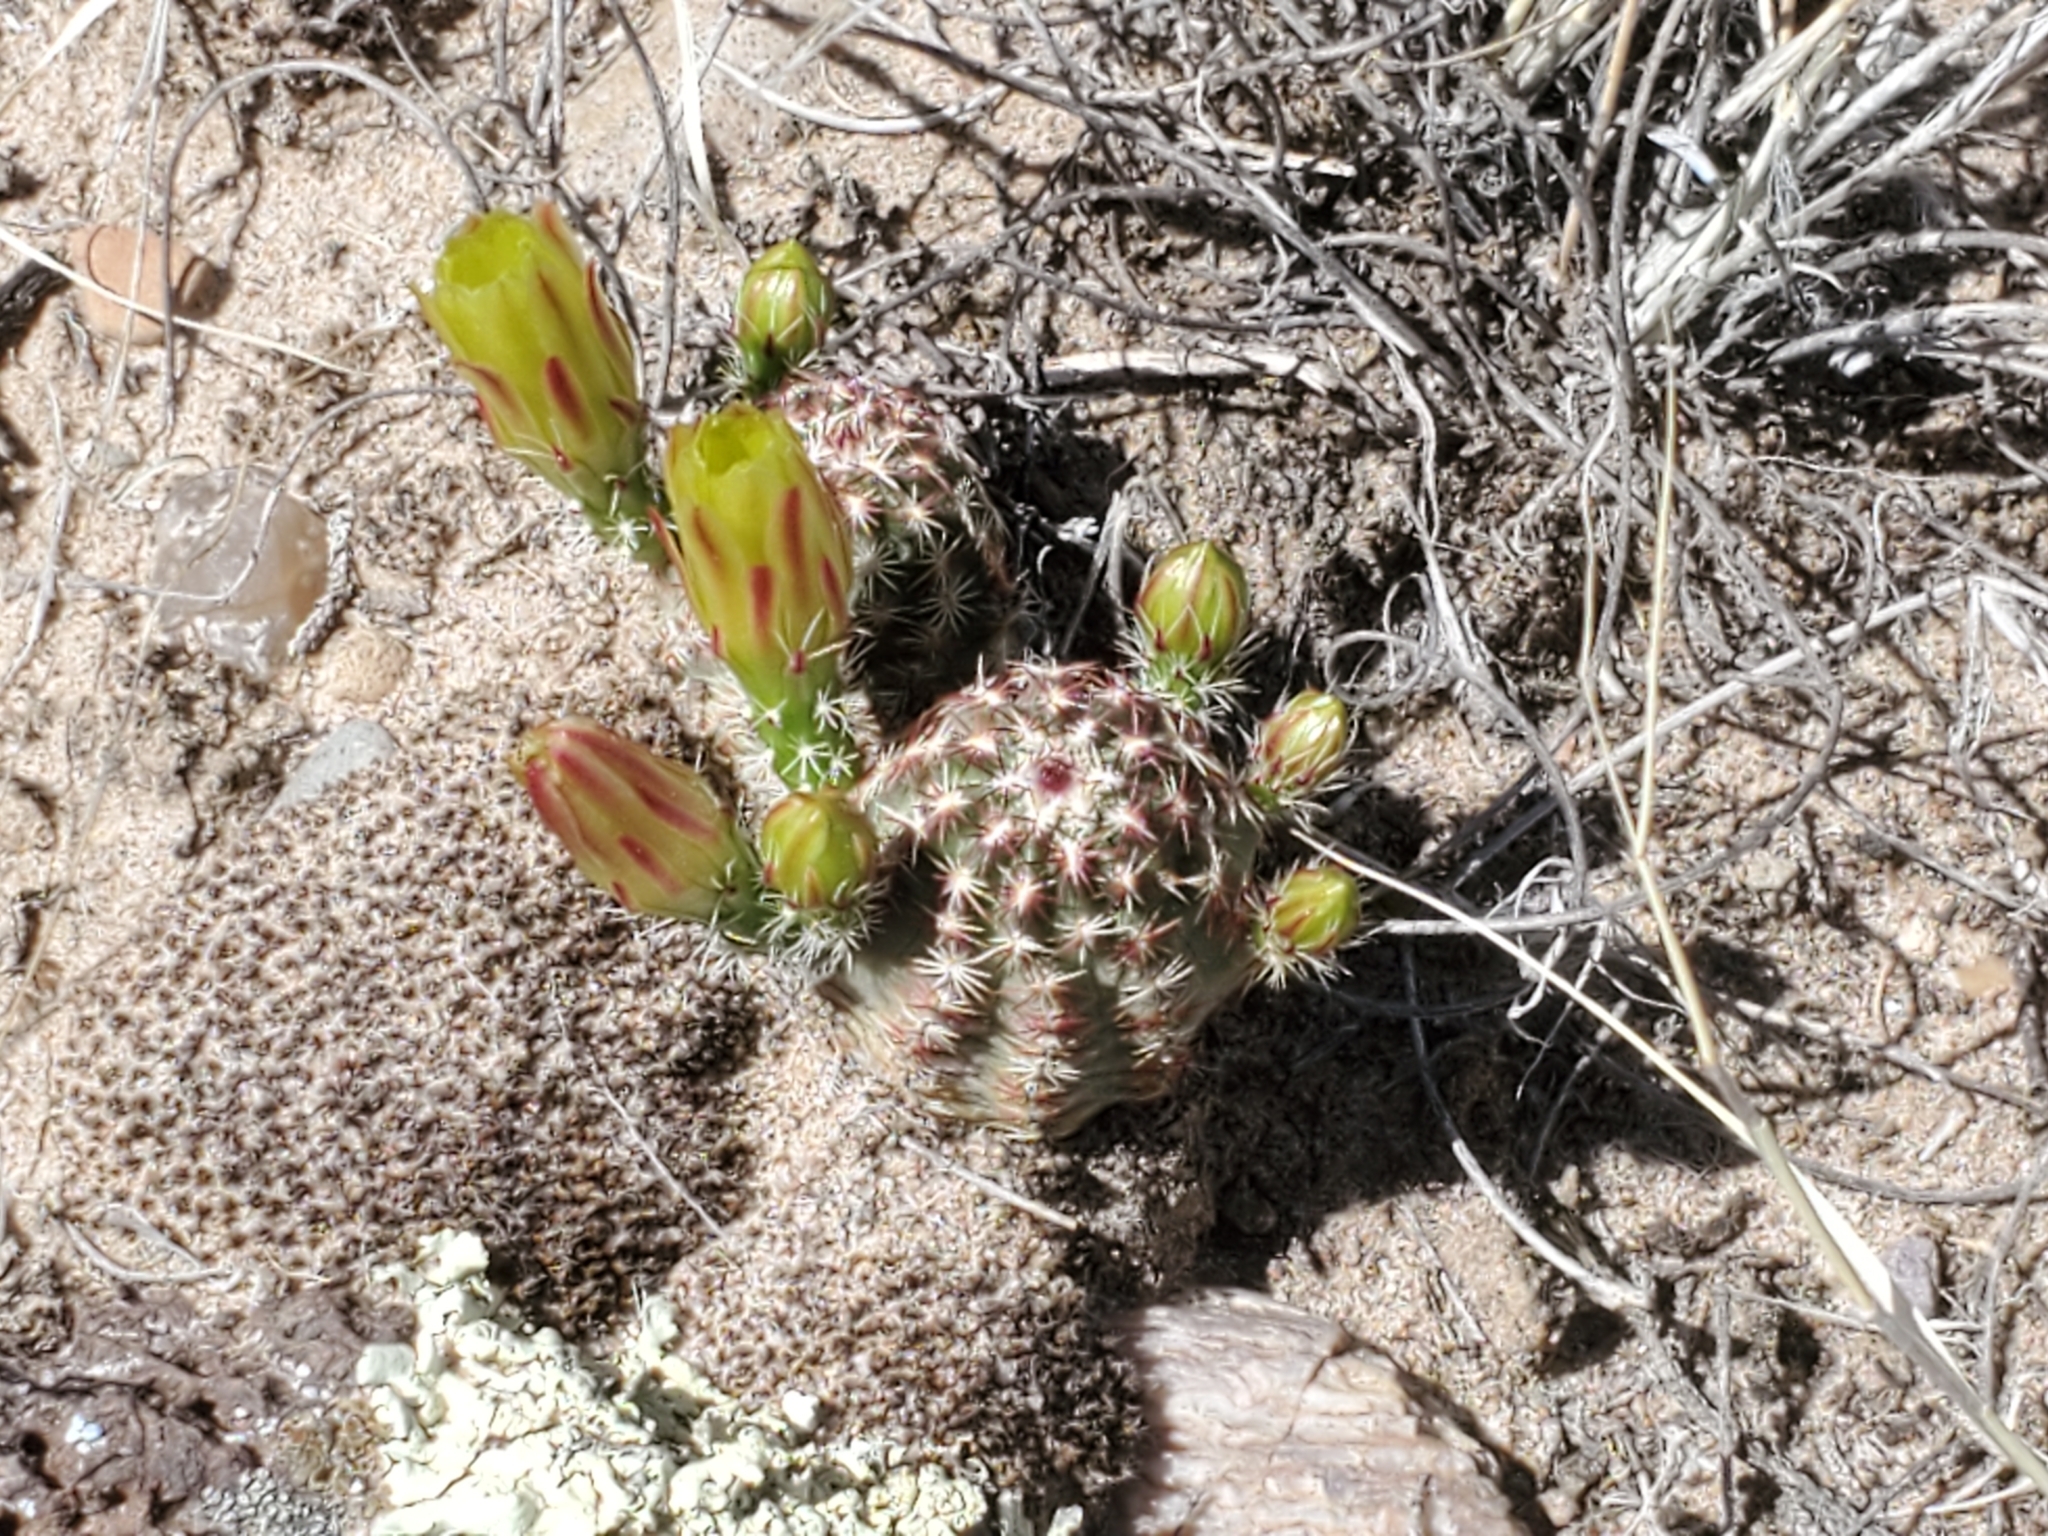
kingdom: Plantae
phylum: Tracheophyta
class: Magnoliopsida
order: Caryophyllales
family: Cactaceae
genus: Echinocereus
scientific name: Echinocereus viridiflorus
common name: Nylon hedgehog cactus
